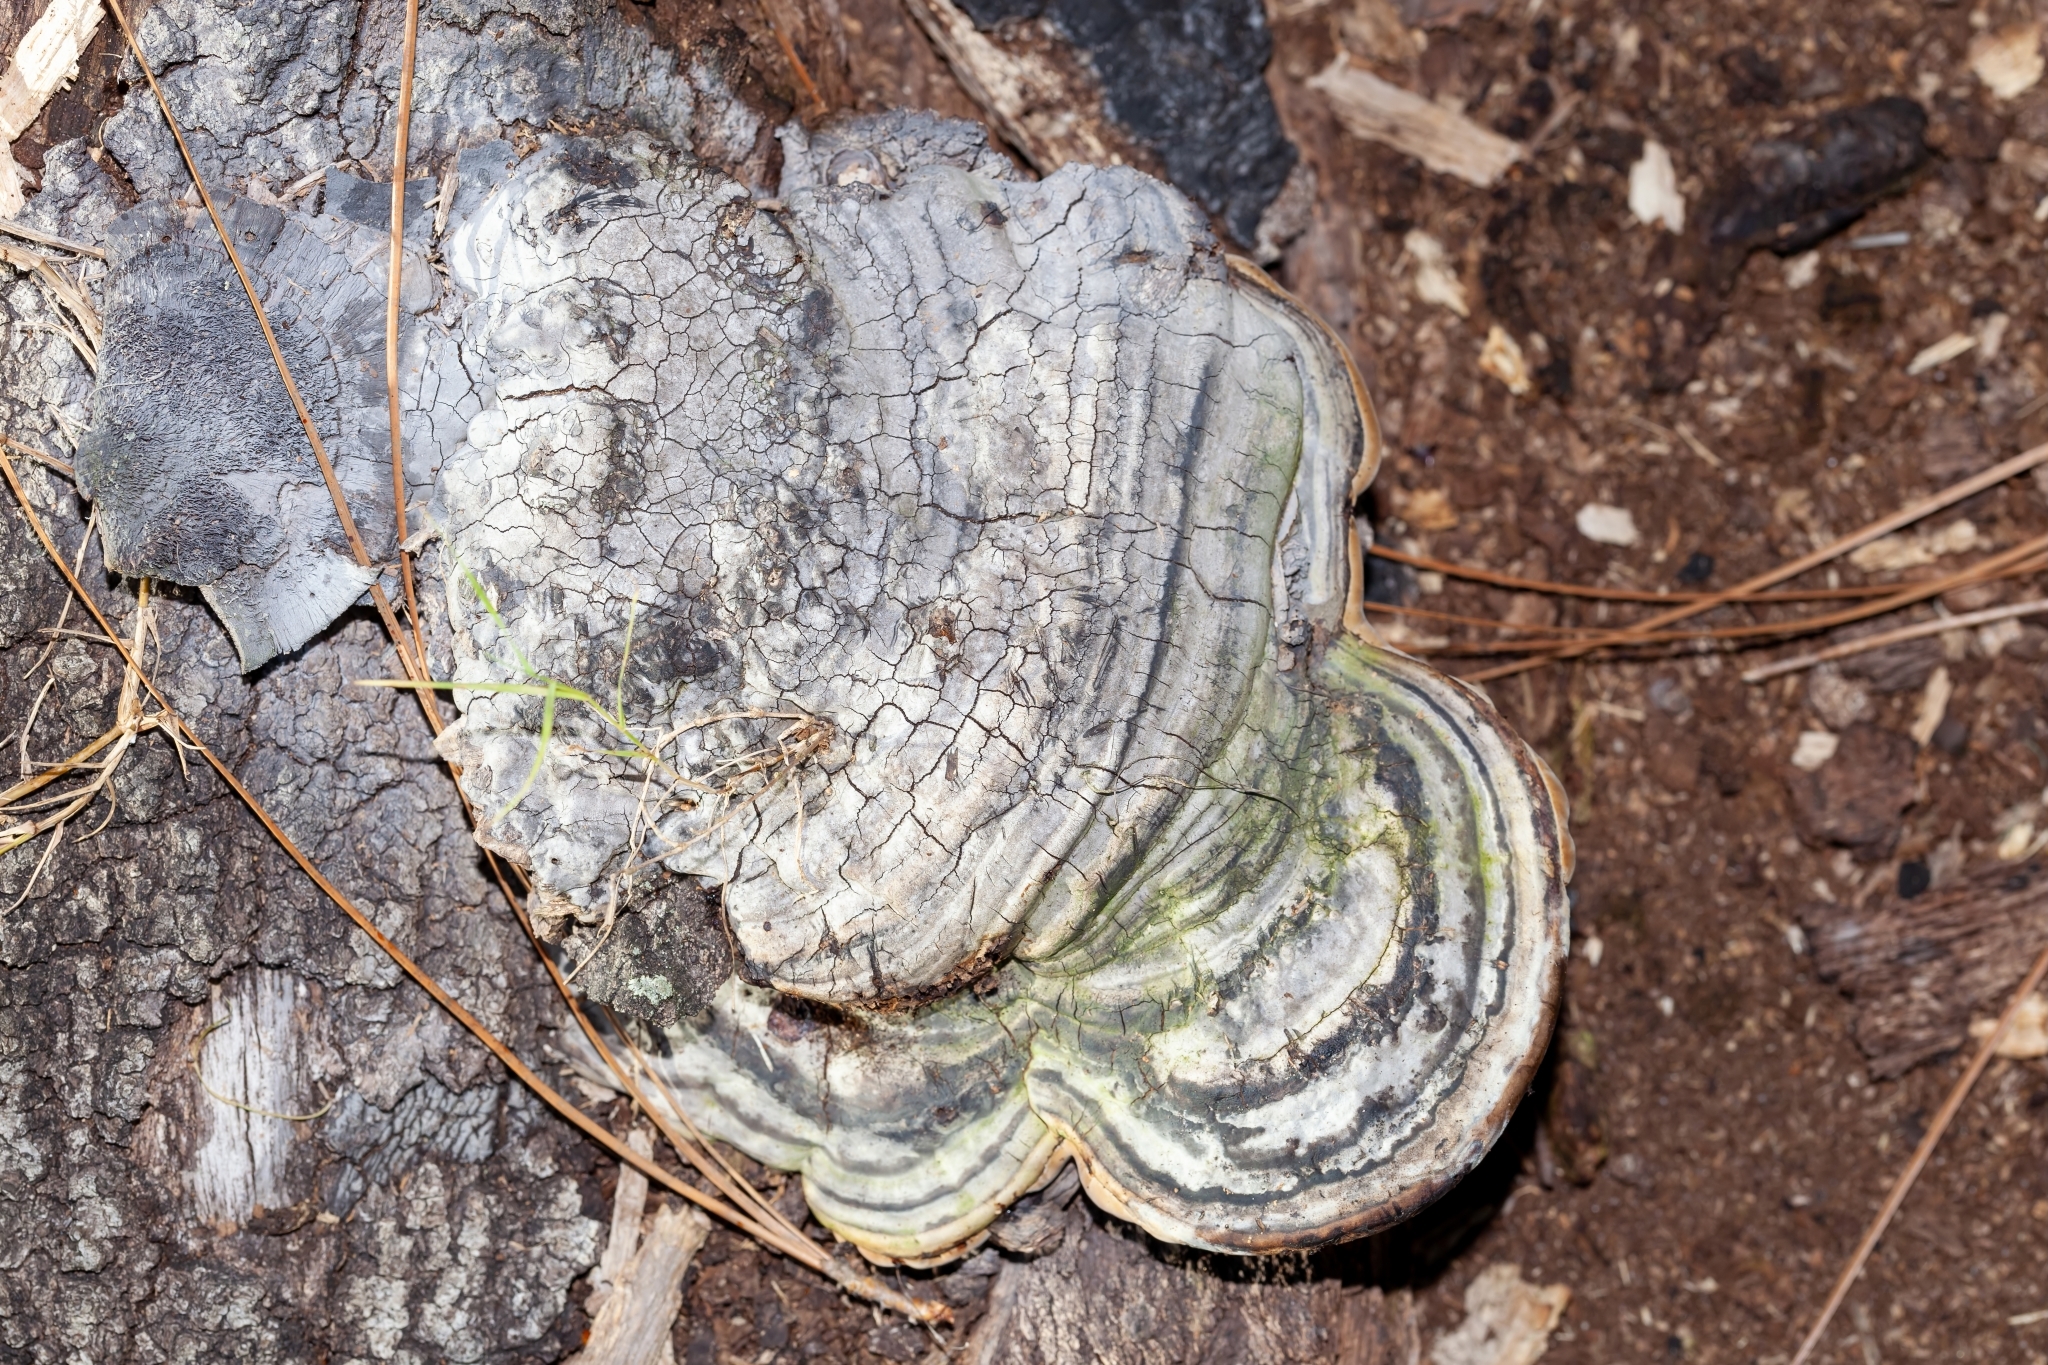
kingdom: Fungi
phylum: Basidiomycota
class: Agaricomycetes
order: Polyporales
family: Polyporaceae
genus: Fomes
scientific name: Fomes fasciatus
